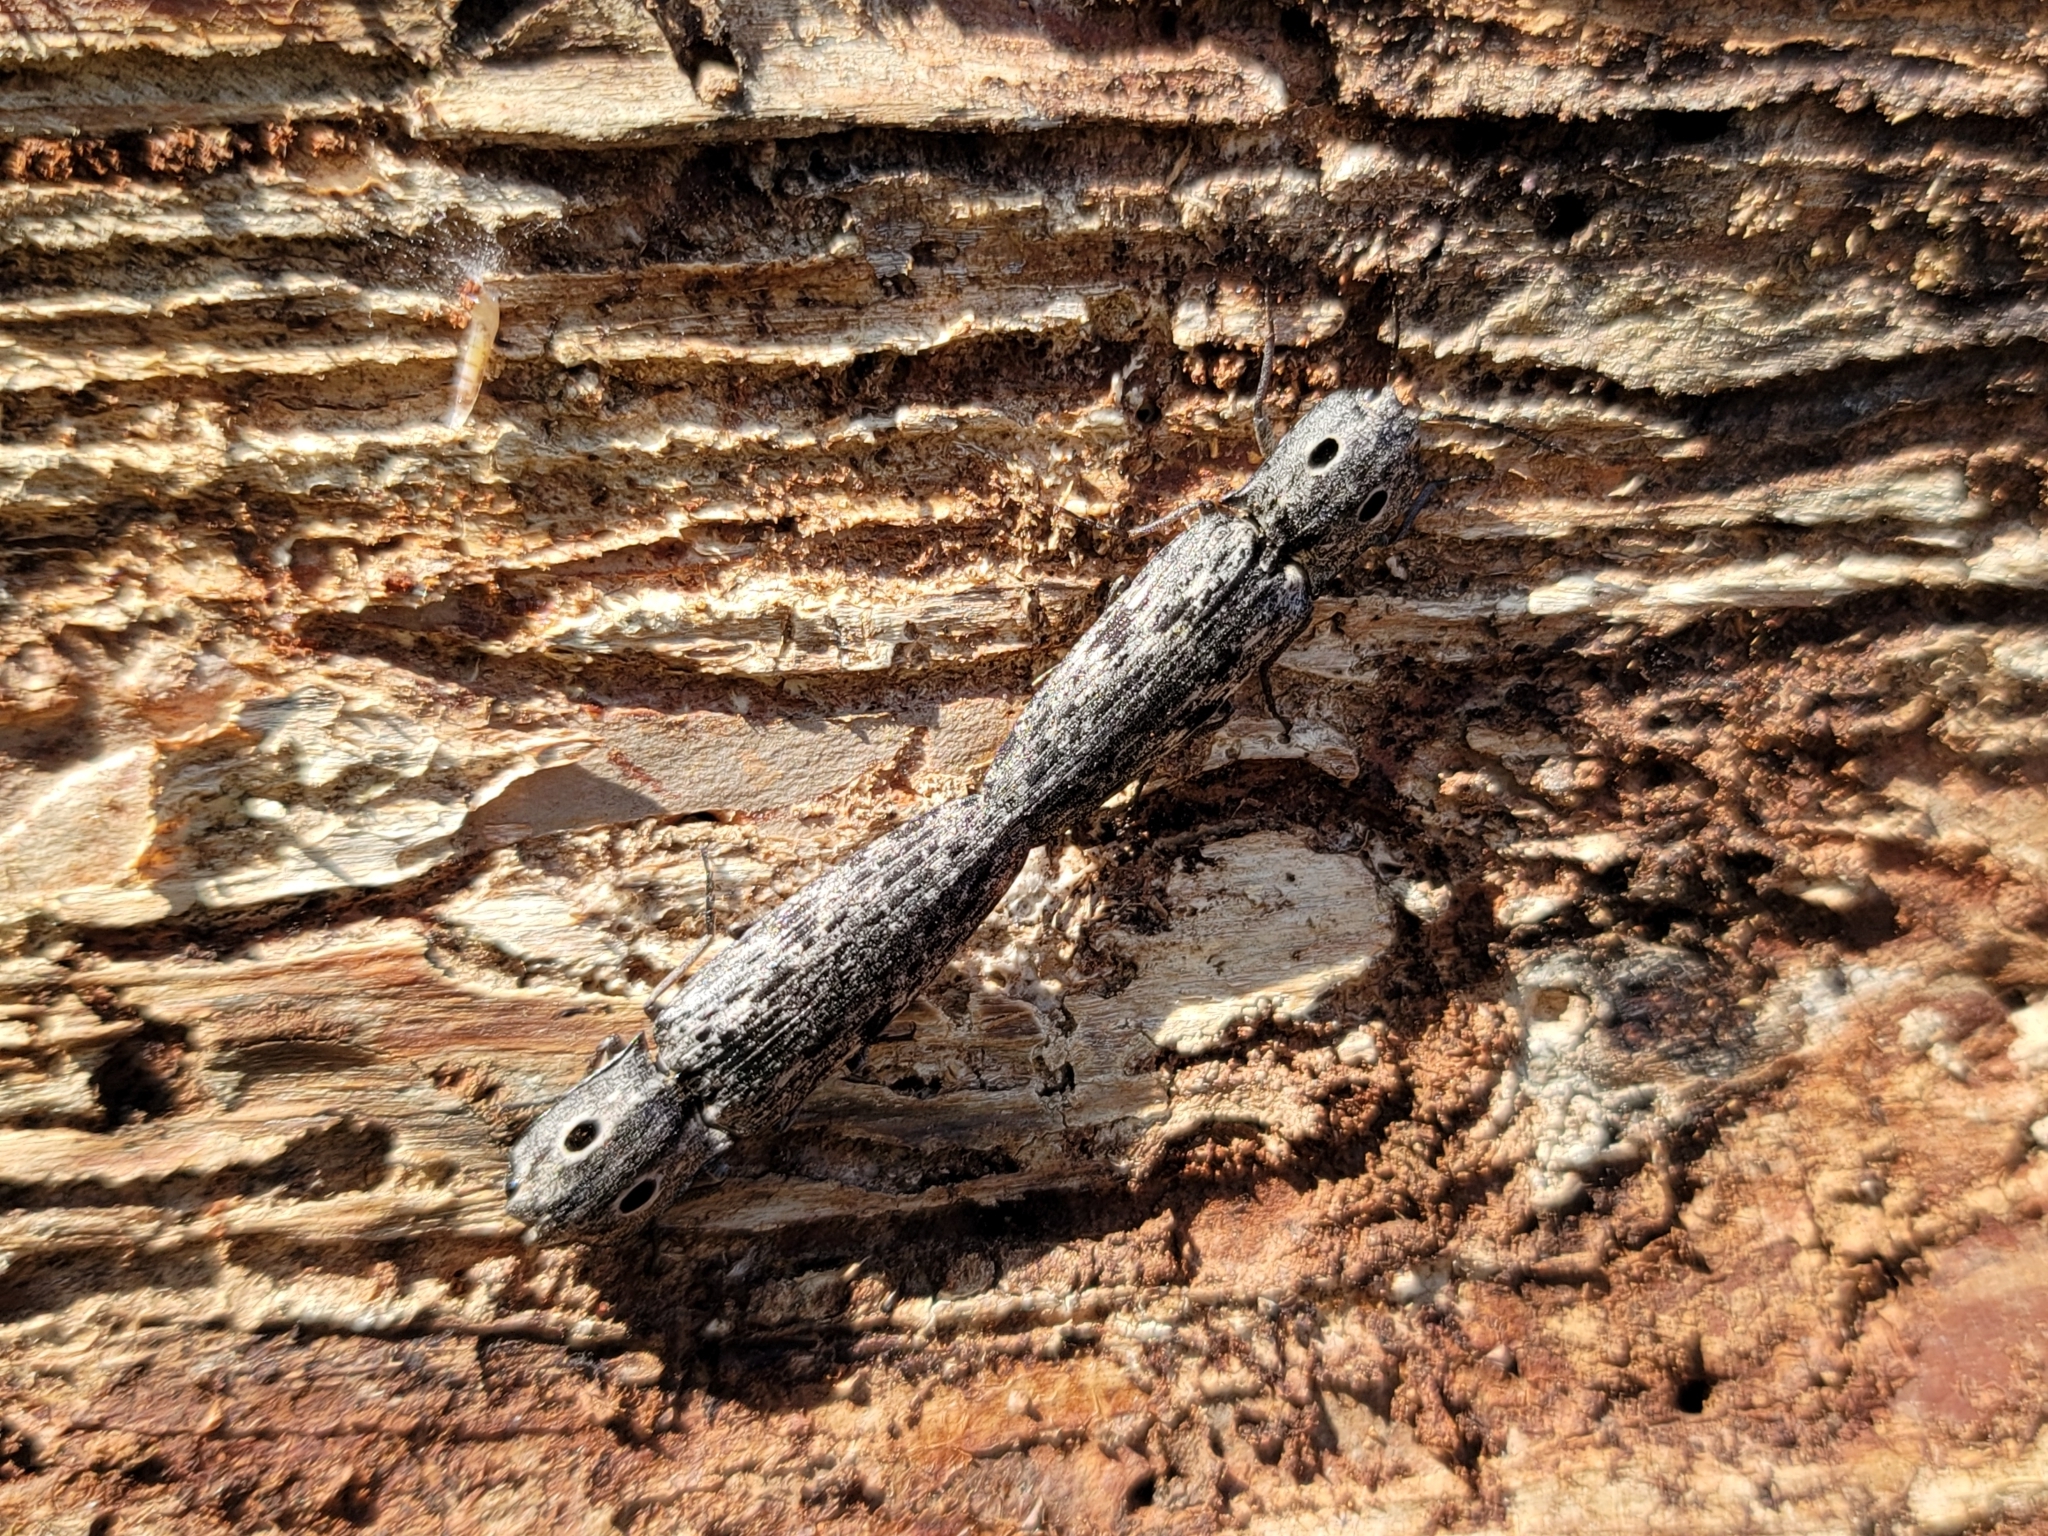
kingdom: Animalia
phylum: Arthropoda
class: Insecta
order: Coleoptera
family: Elateridae
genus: Alaus
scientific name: Alaus myops
